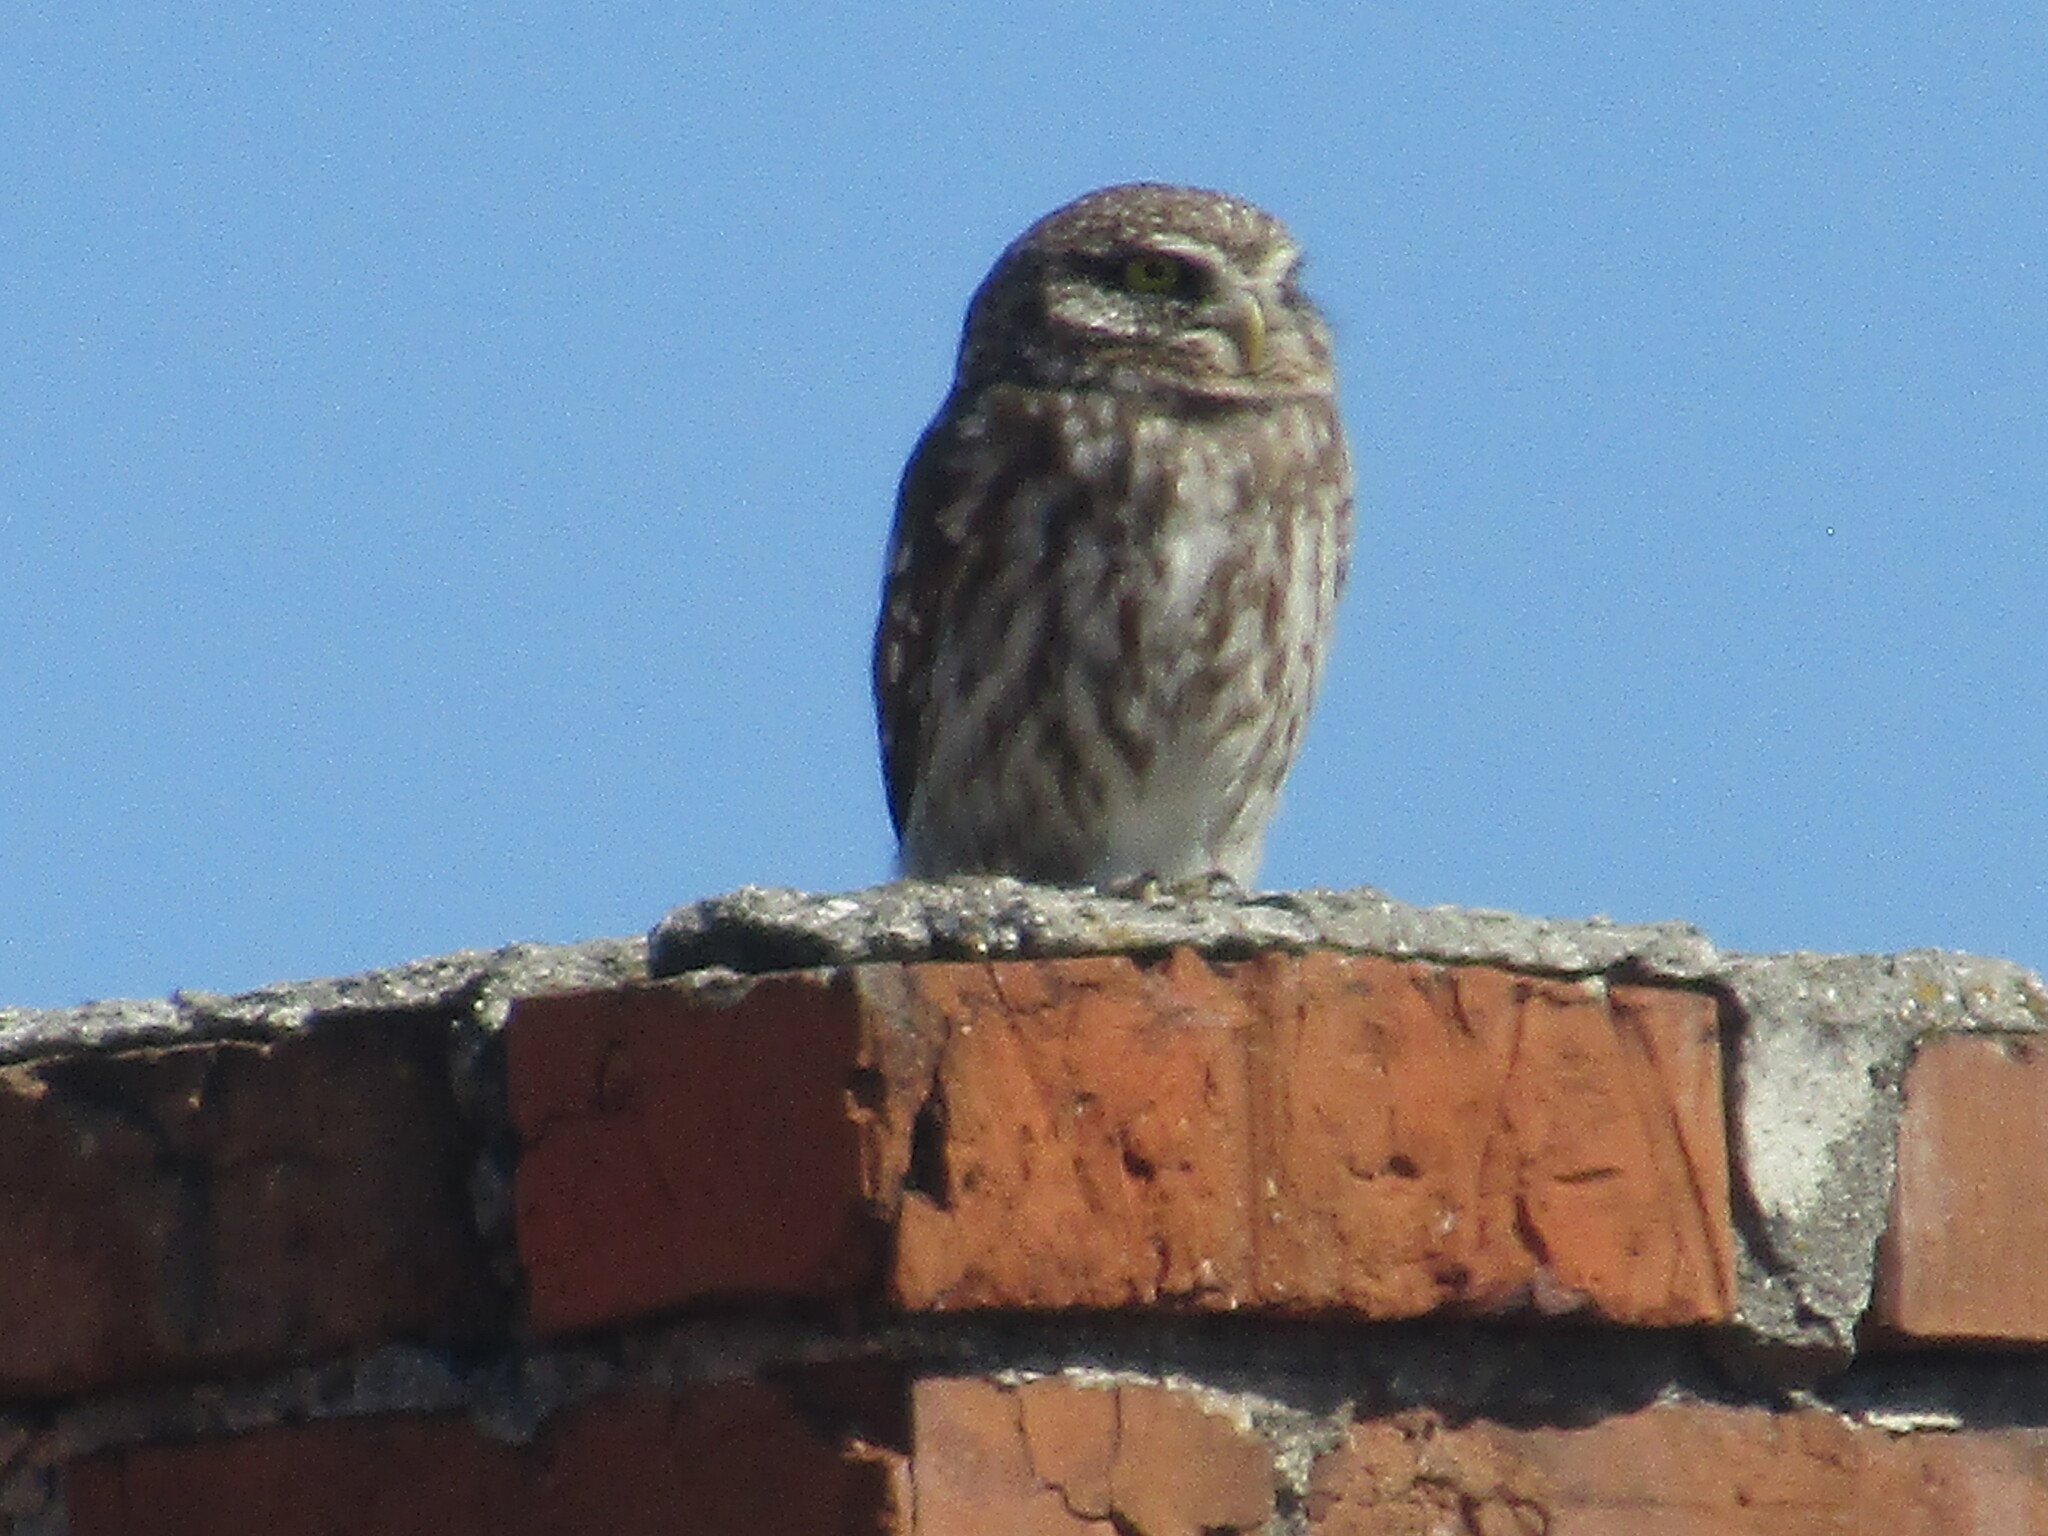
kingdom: Animalia
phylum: Chordata
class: Aves
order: Strigiformes
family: Strigidae
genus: Athene
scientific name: Athene noctua
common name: Little owl
